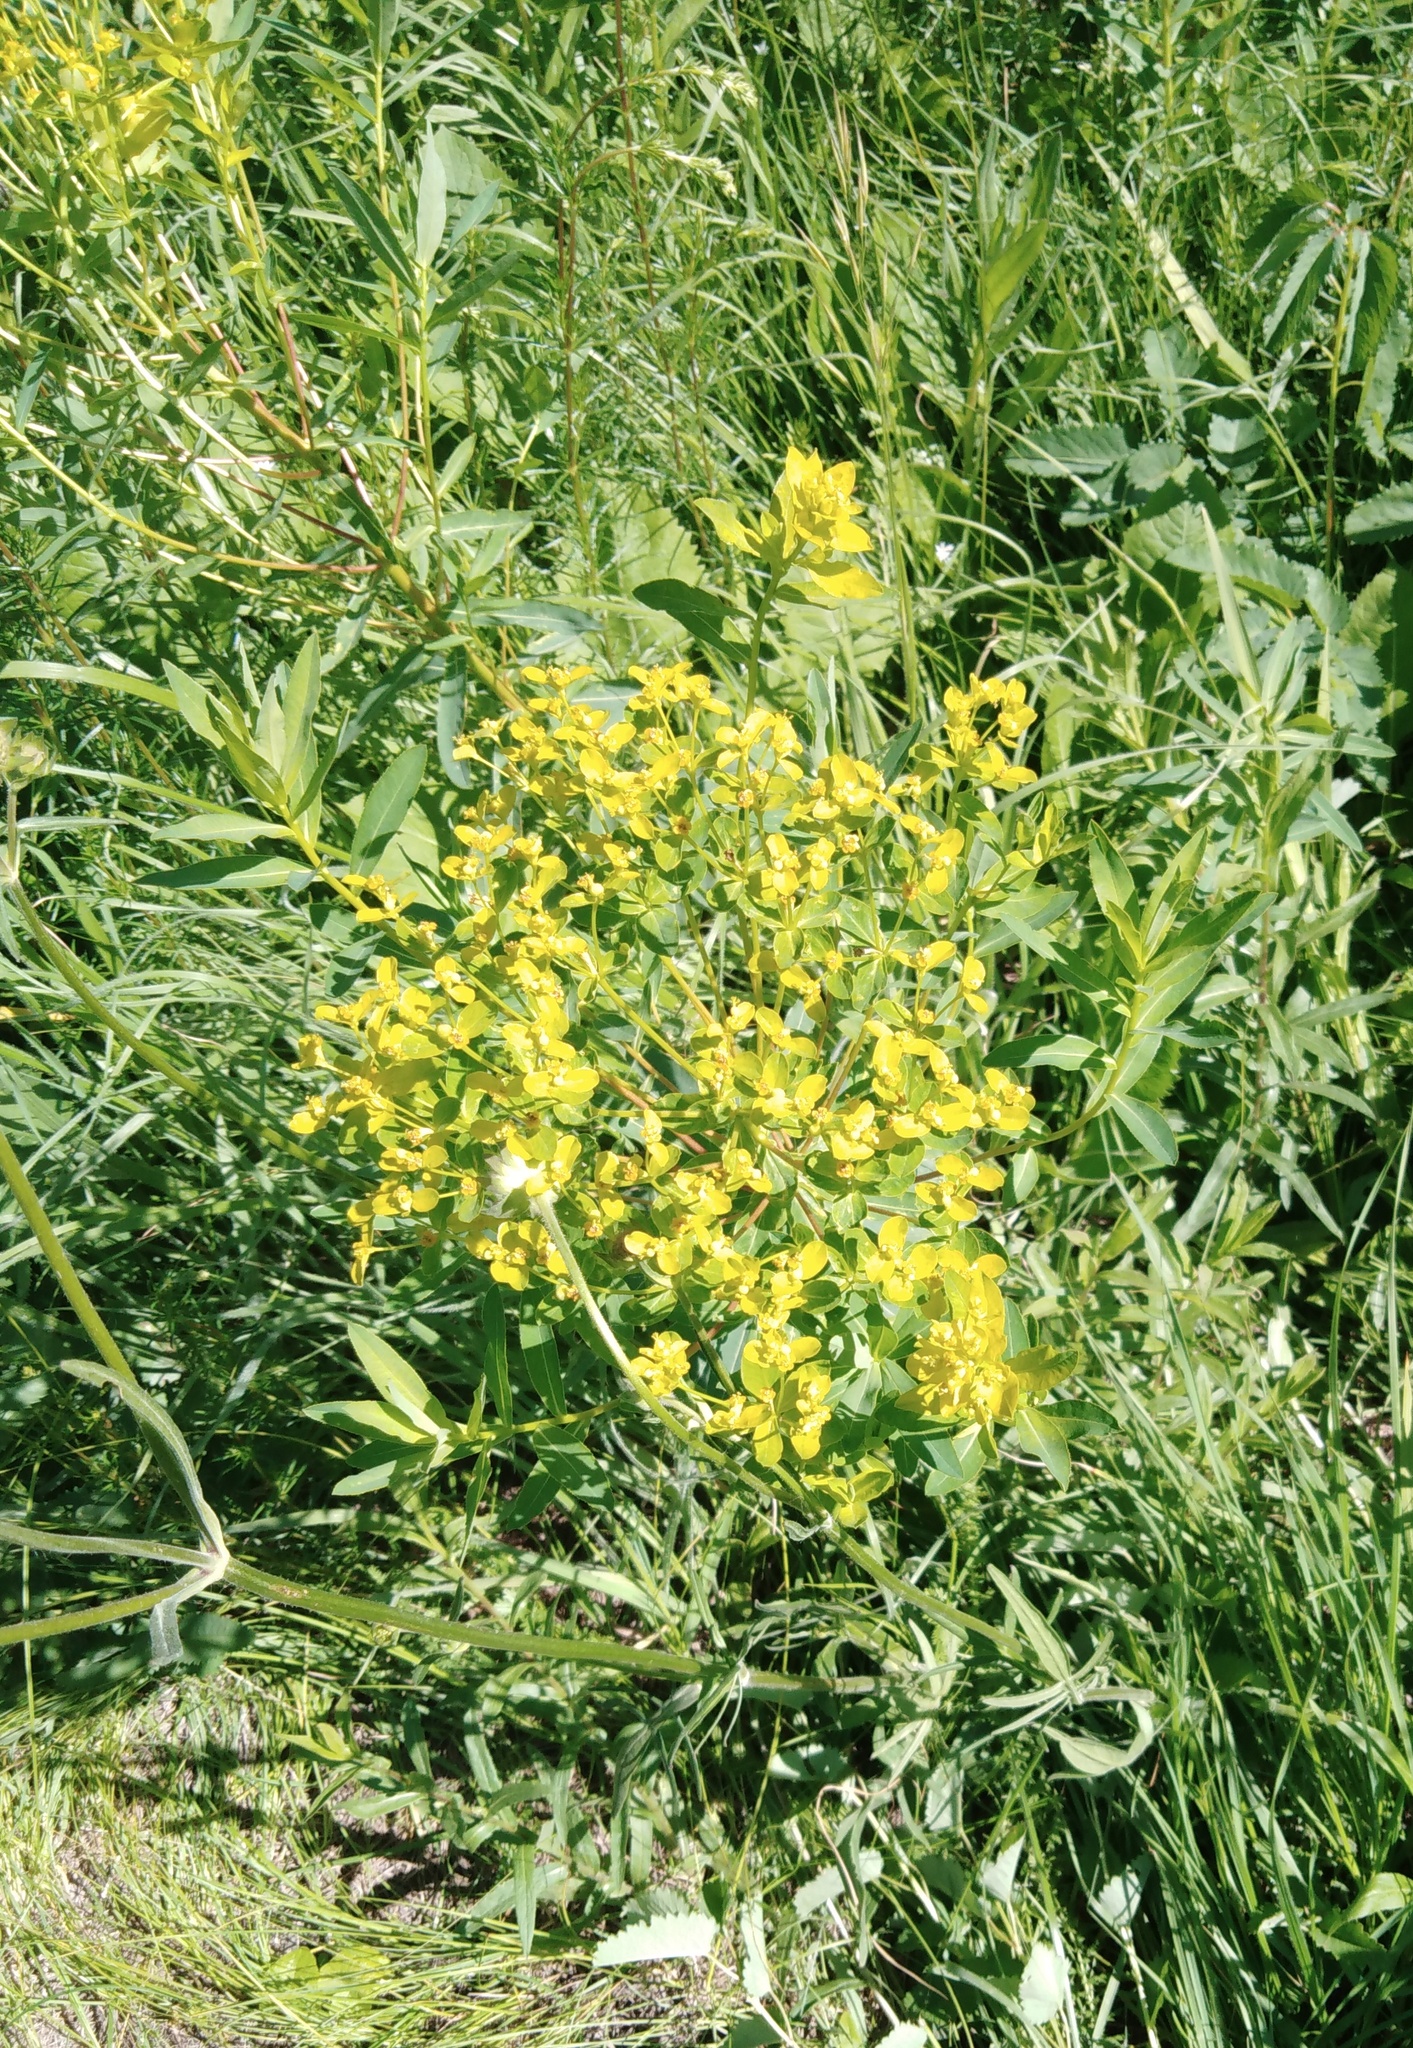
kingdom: Plantae
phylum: Tracheophyta
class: Magnoliopsida
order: Malpighiales
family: Euphorbiaceae
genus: Euphorbia
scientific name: Euphorbia semivillosa
